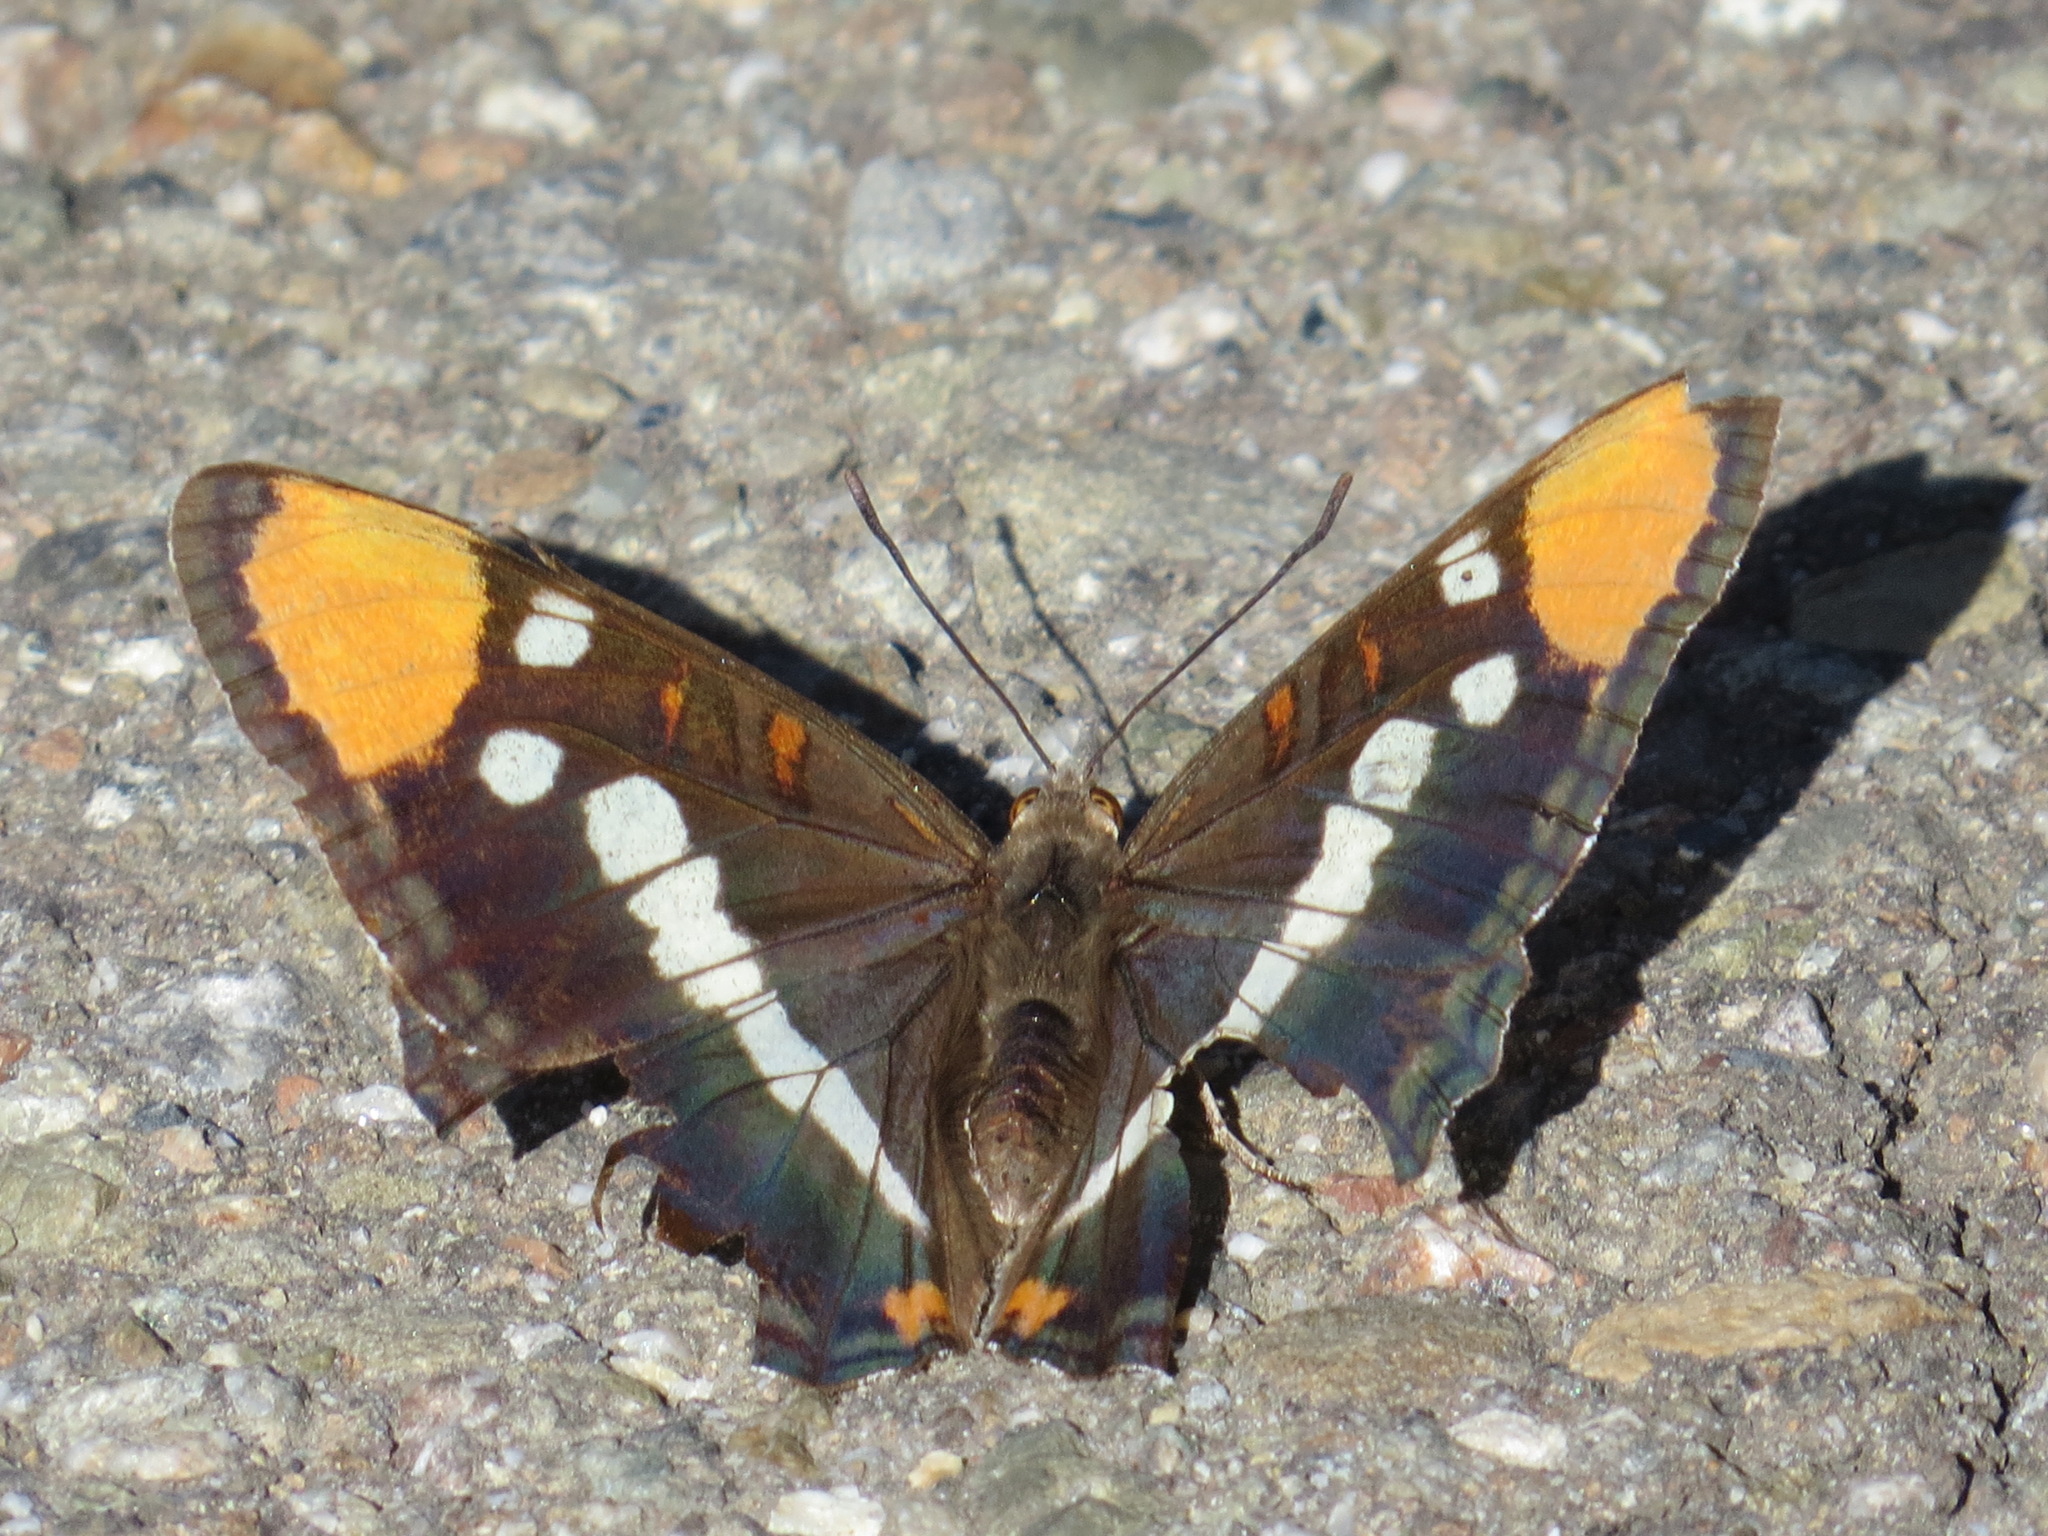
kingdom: Animalia
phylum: Arthropoda
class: Insecta
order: Lepidoptera
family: Nymphalidae
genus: Limenitis
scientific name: Limenitis bredowii
